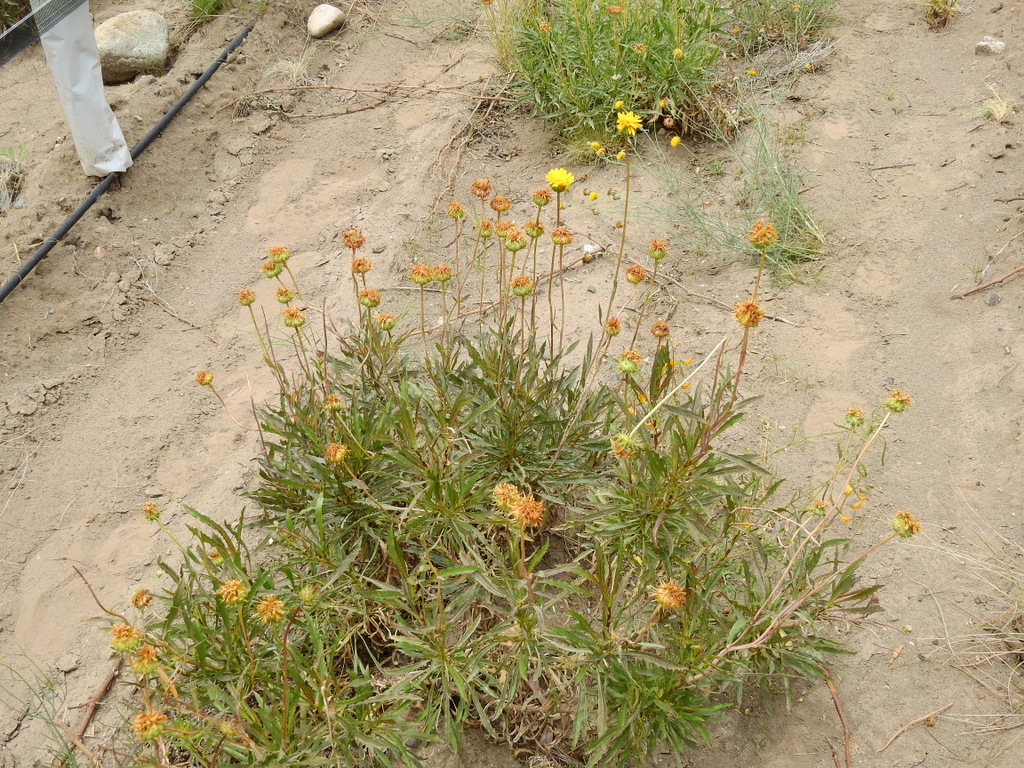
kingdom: Plantae
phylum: Tracheophyta
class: Magnoliopsida
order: Asterales
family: Asteraceae
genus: Grindelia
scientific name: Grindelia chiloensis
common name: Shrubby gumweed
